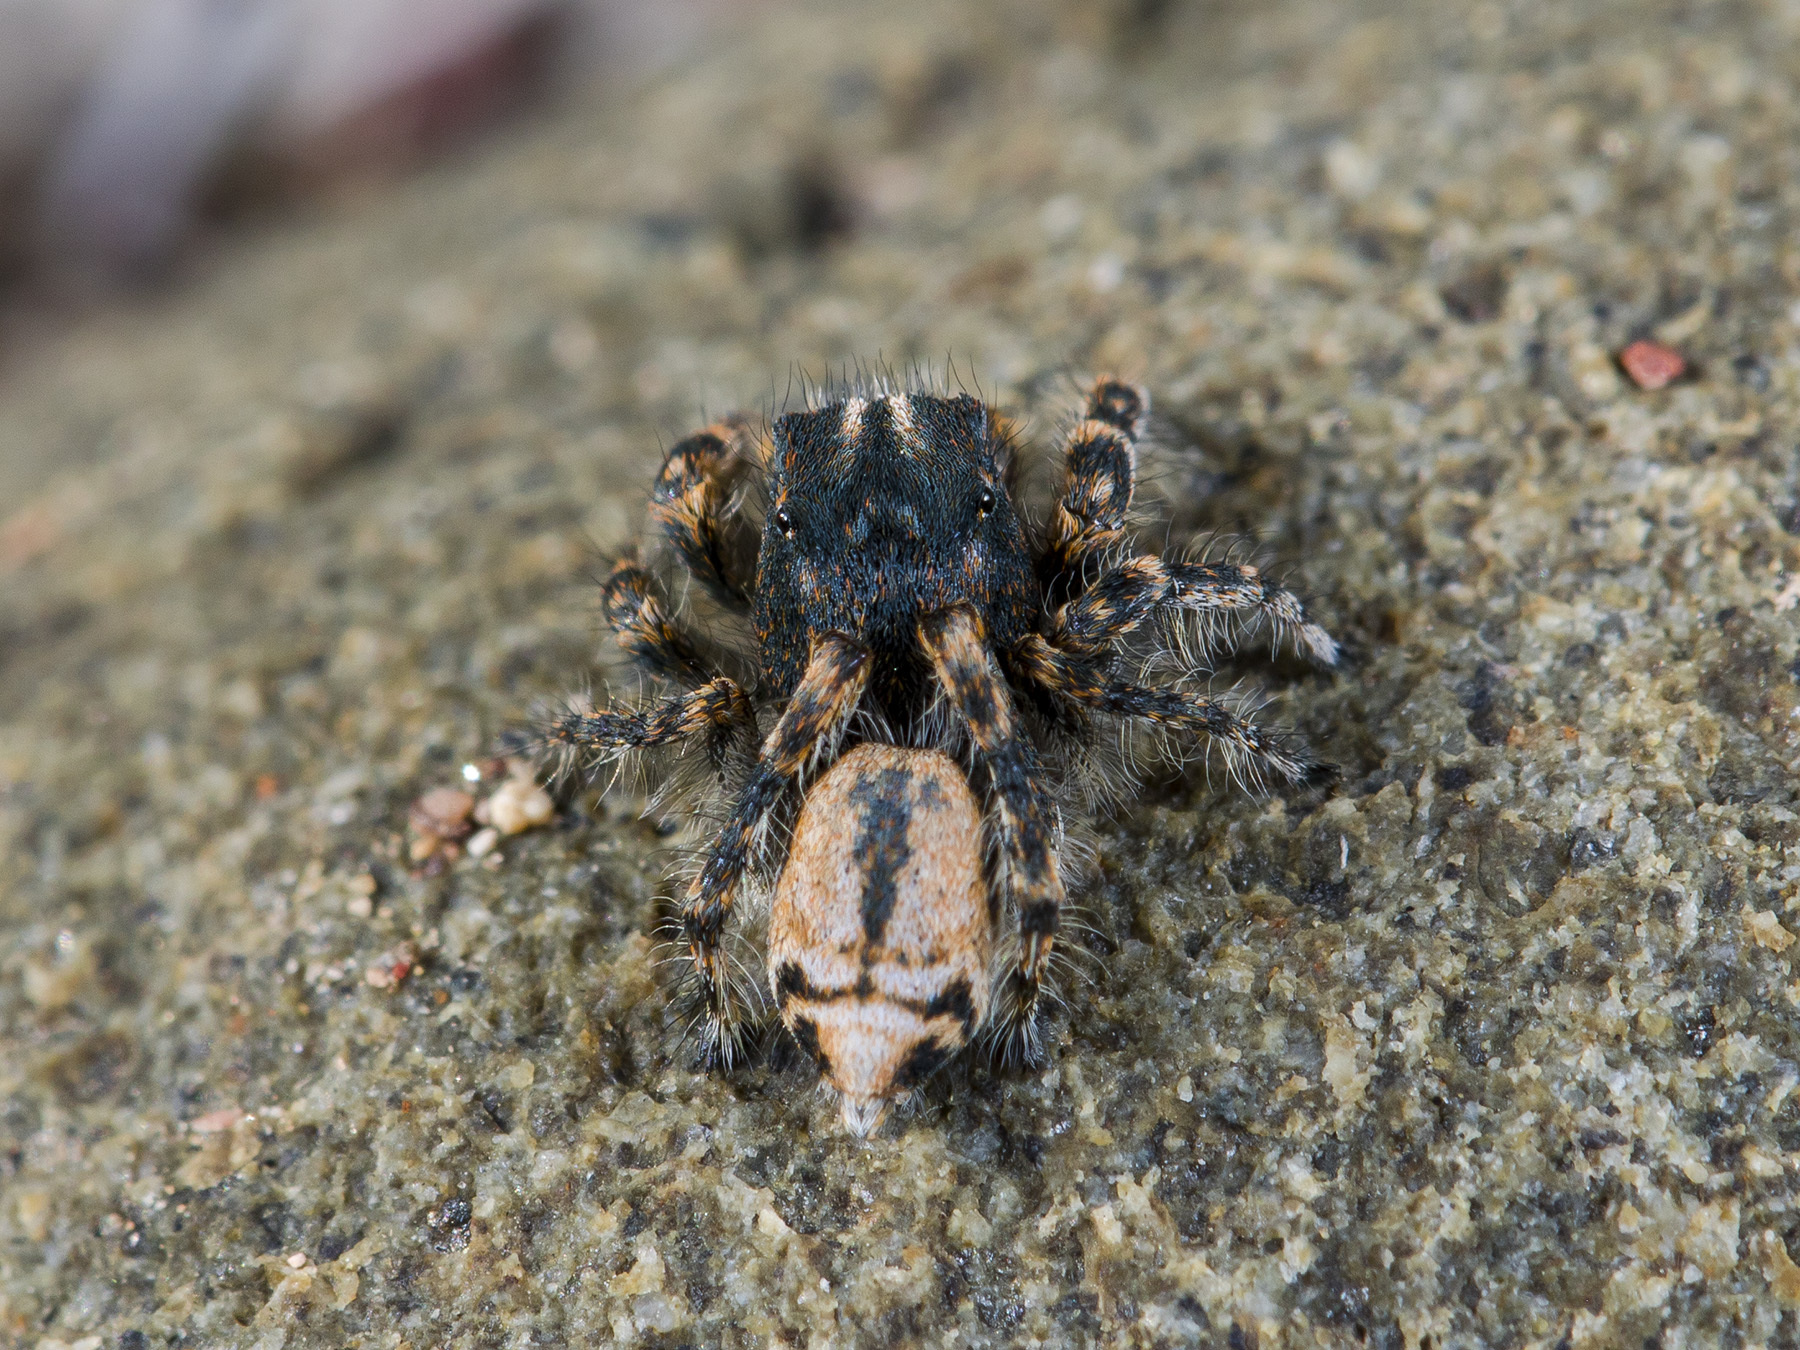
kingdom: Animalia
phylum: Arthropoda
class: Arachnida
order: Araneae
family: Salticidae
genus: Yllenus
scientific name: Yllenus zyuzini
